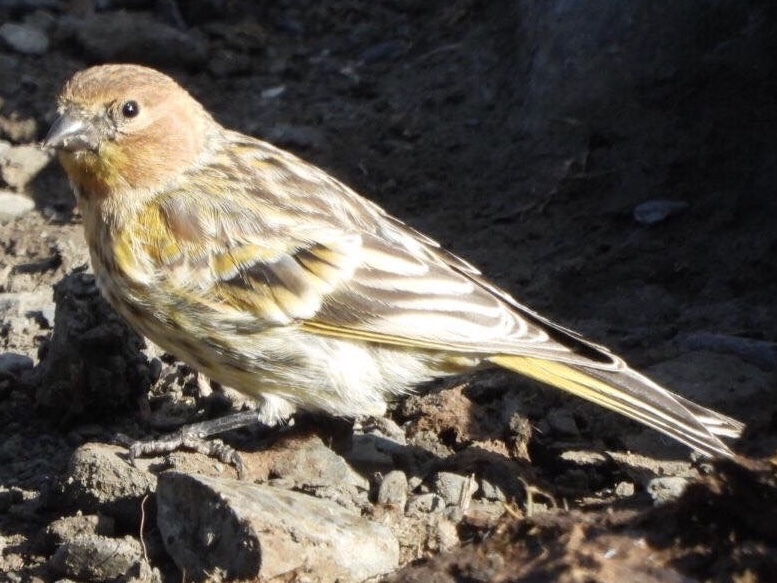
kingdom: Animalia
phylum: Chordata
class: Aves
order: Passeriformes
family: Fringillidae
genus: Serinus
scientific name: Serinus pusillus
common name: Red-fronted serin
